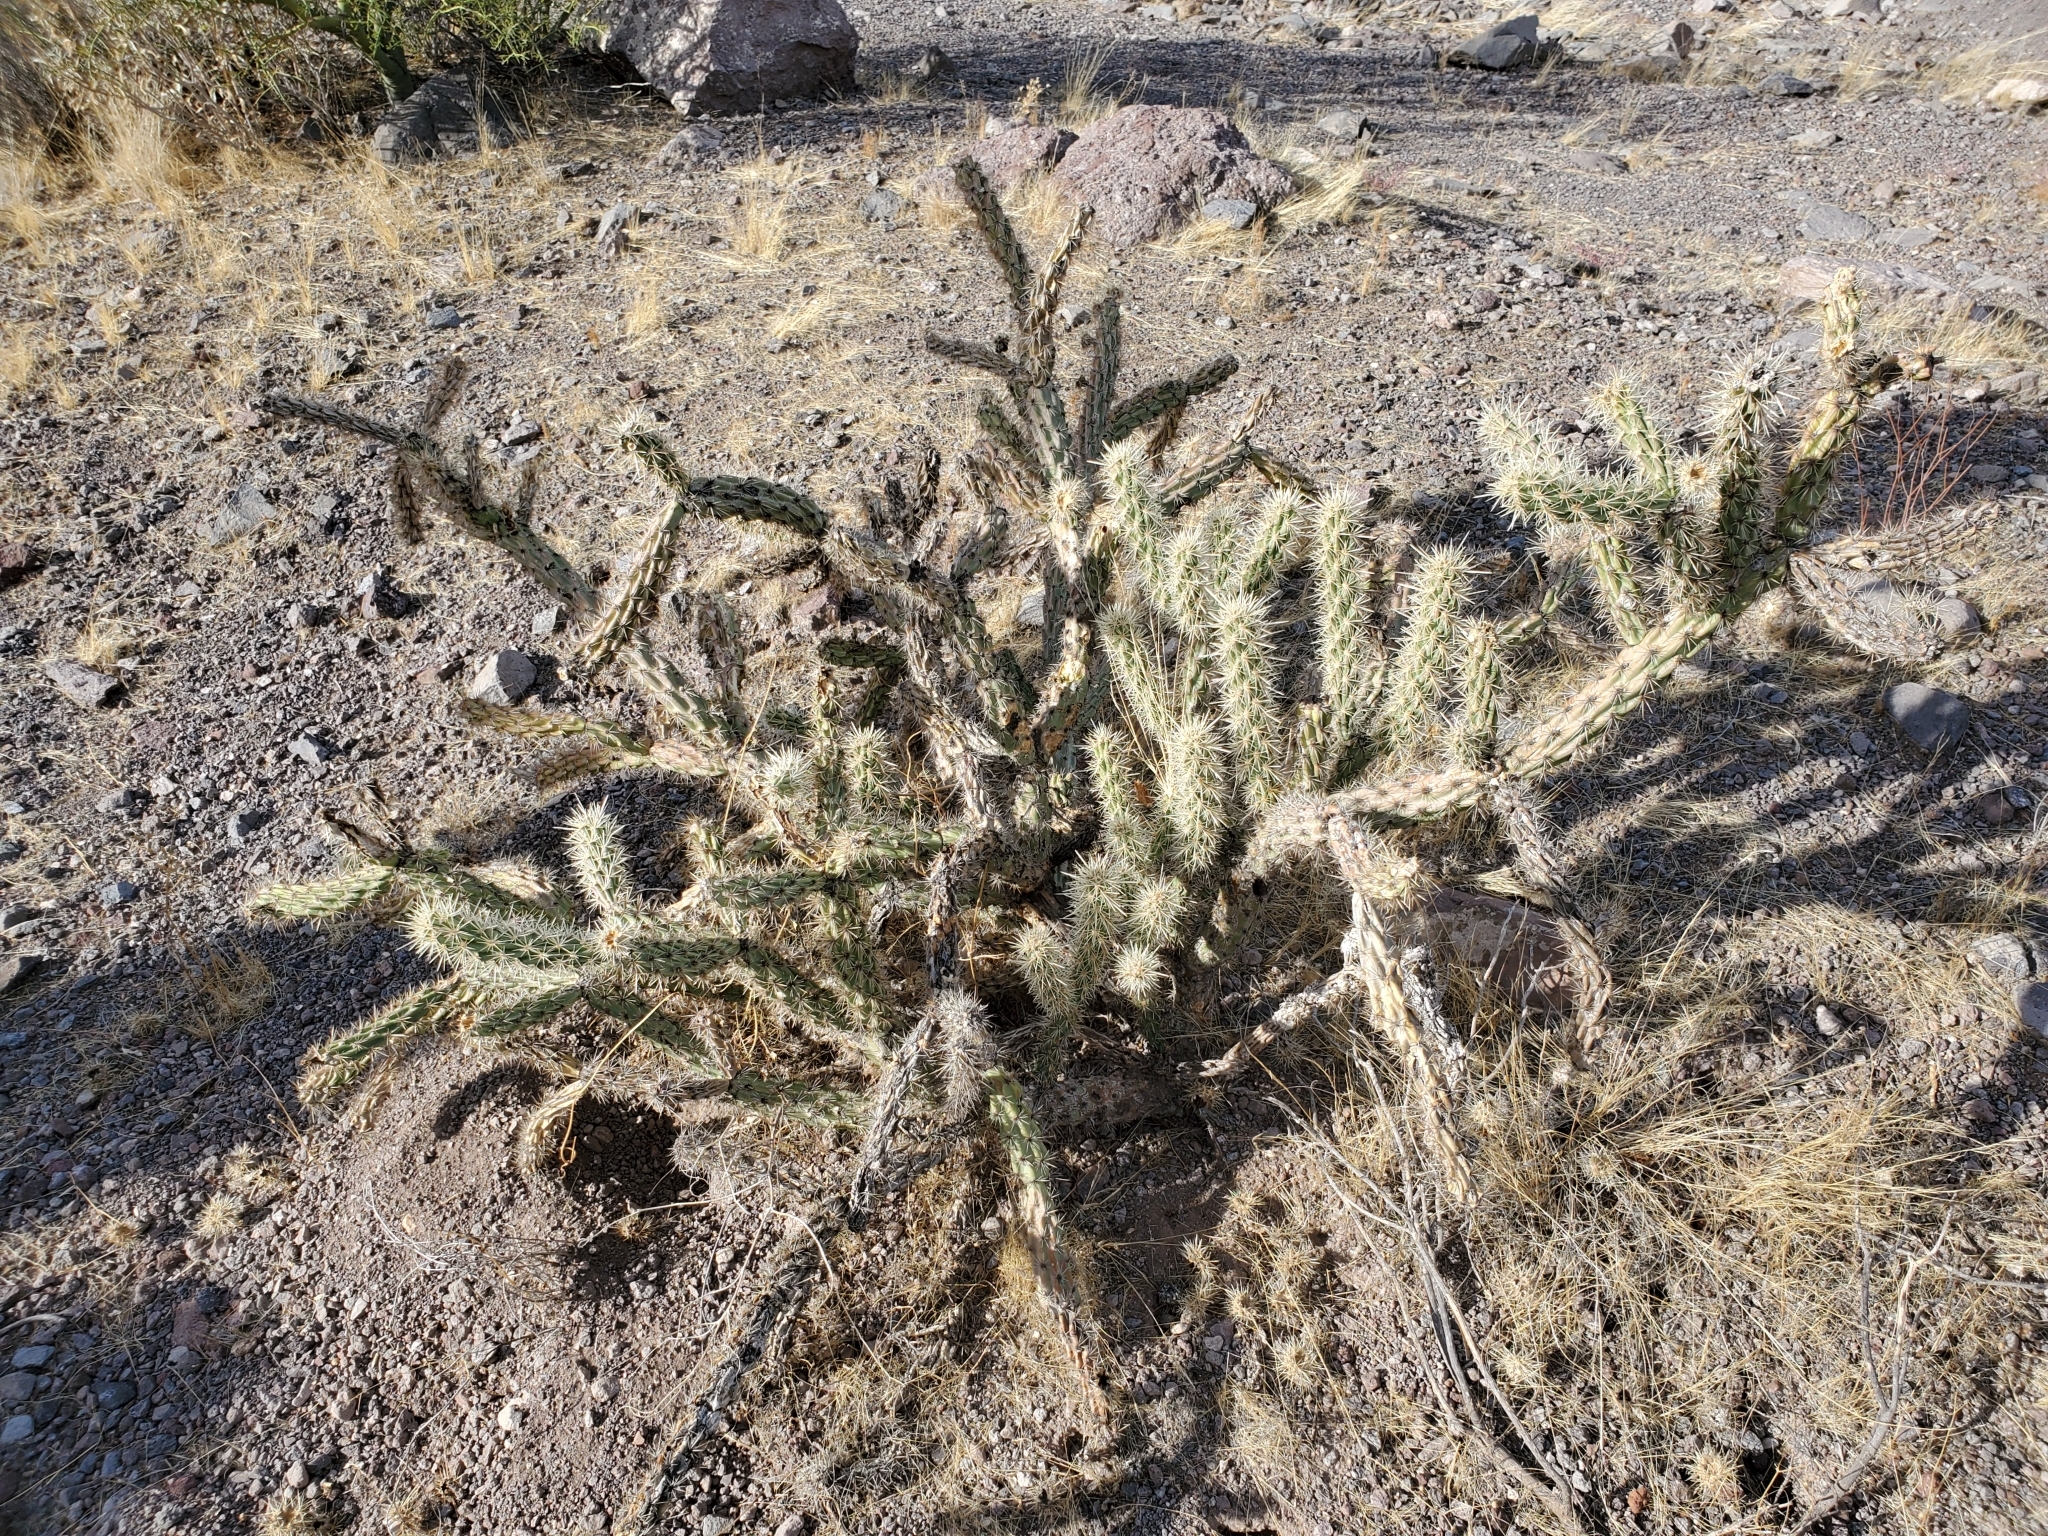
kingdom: Plantae
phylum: Tracheophyta
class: Magnoliopsida
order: Caryophyllales
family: Cactaceae
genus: Cylindropuntia
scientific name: Cylindropuntia acanthocarpa
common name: Buckhorn cholla
